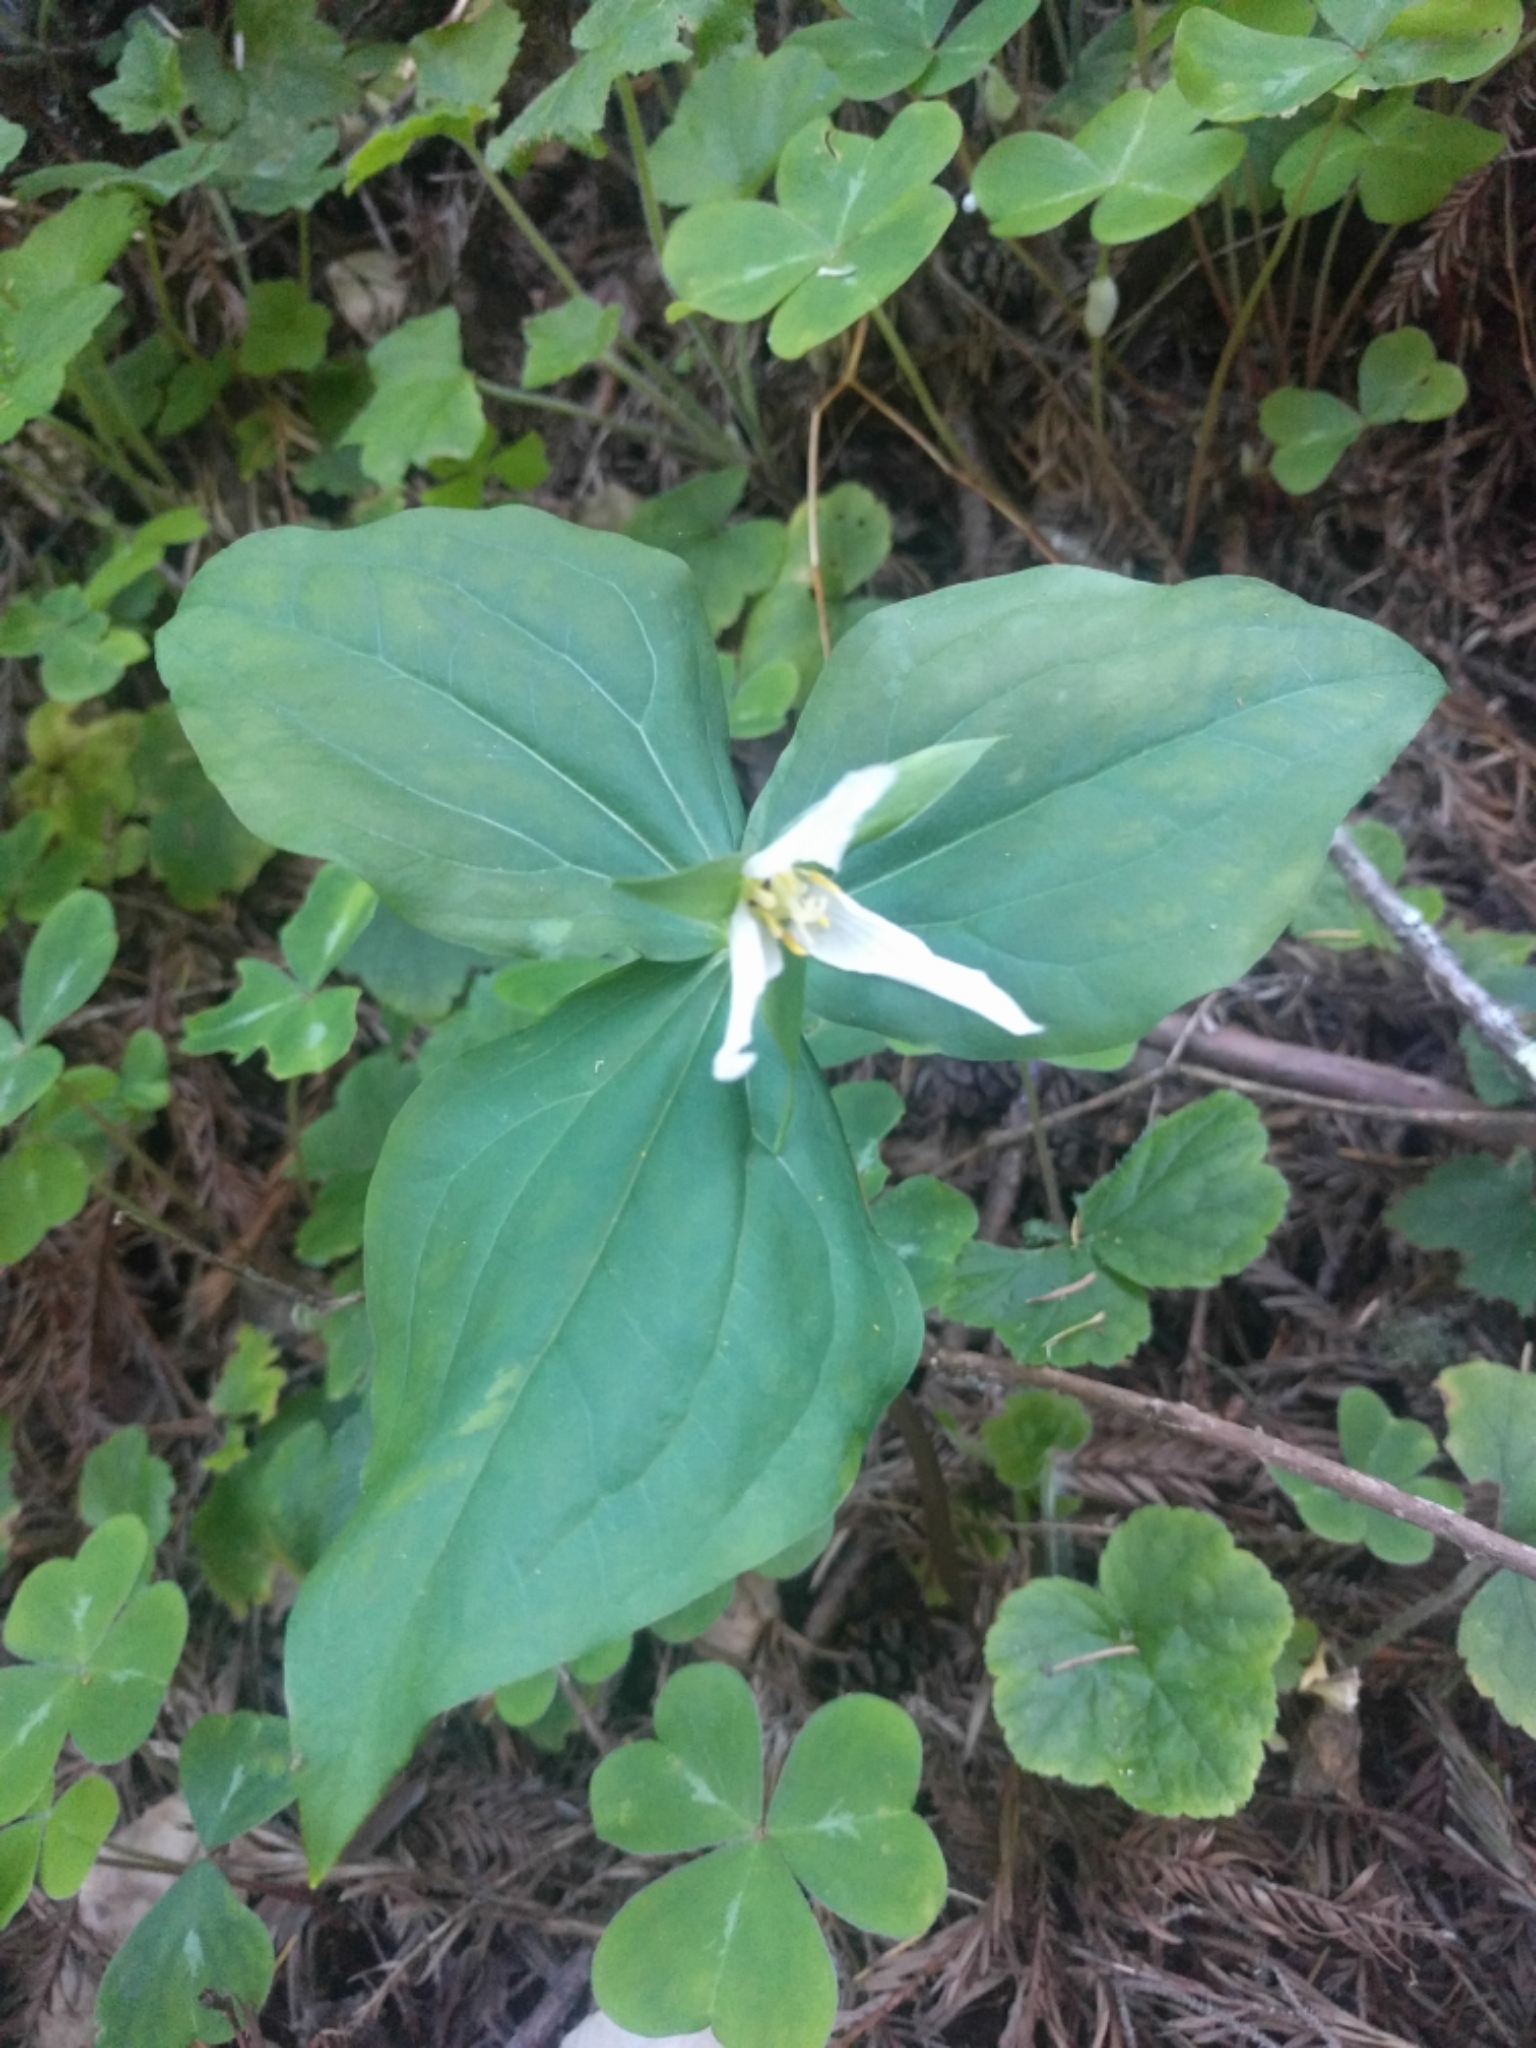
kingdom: Plantae
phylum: Tracheophyta
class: Liliopsida
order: Liliales
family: Melanthiaceae
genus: Trillium
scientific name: Trillium ovatum
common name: Pacific trillium
